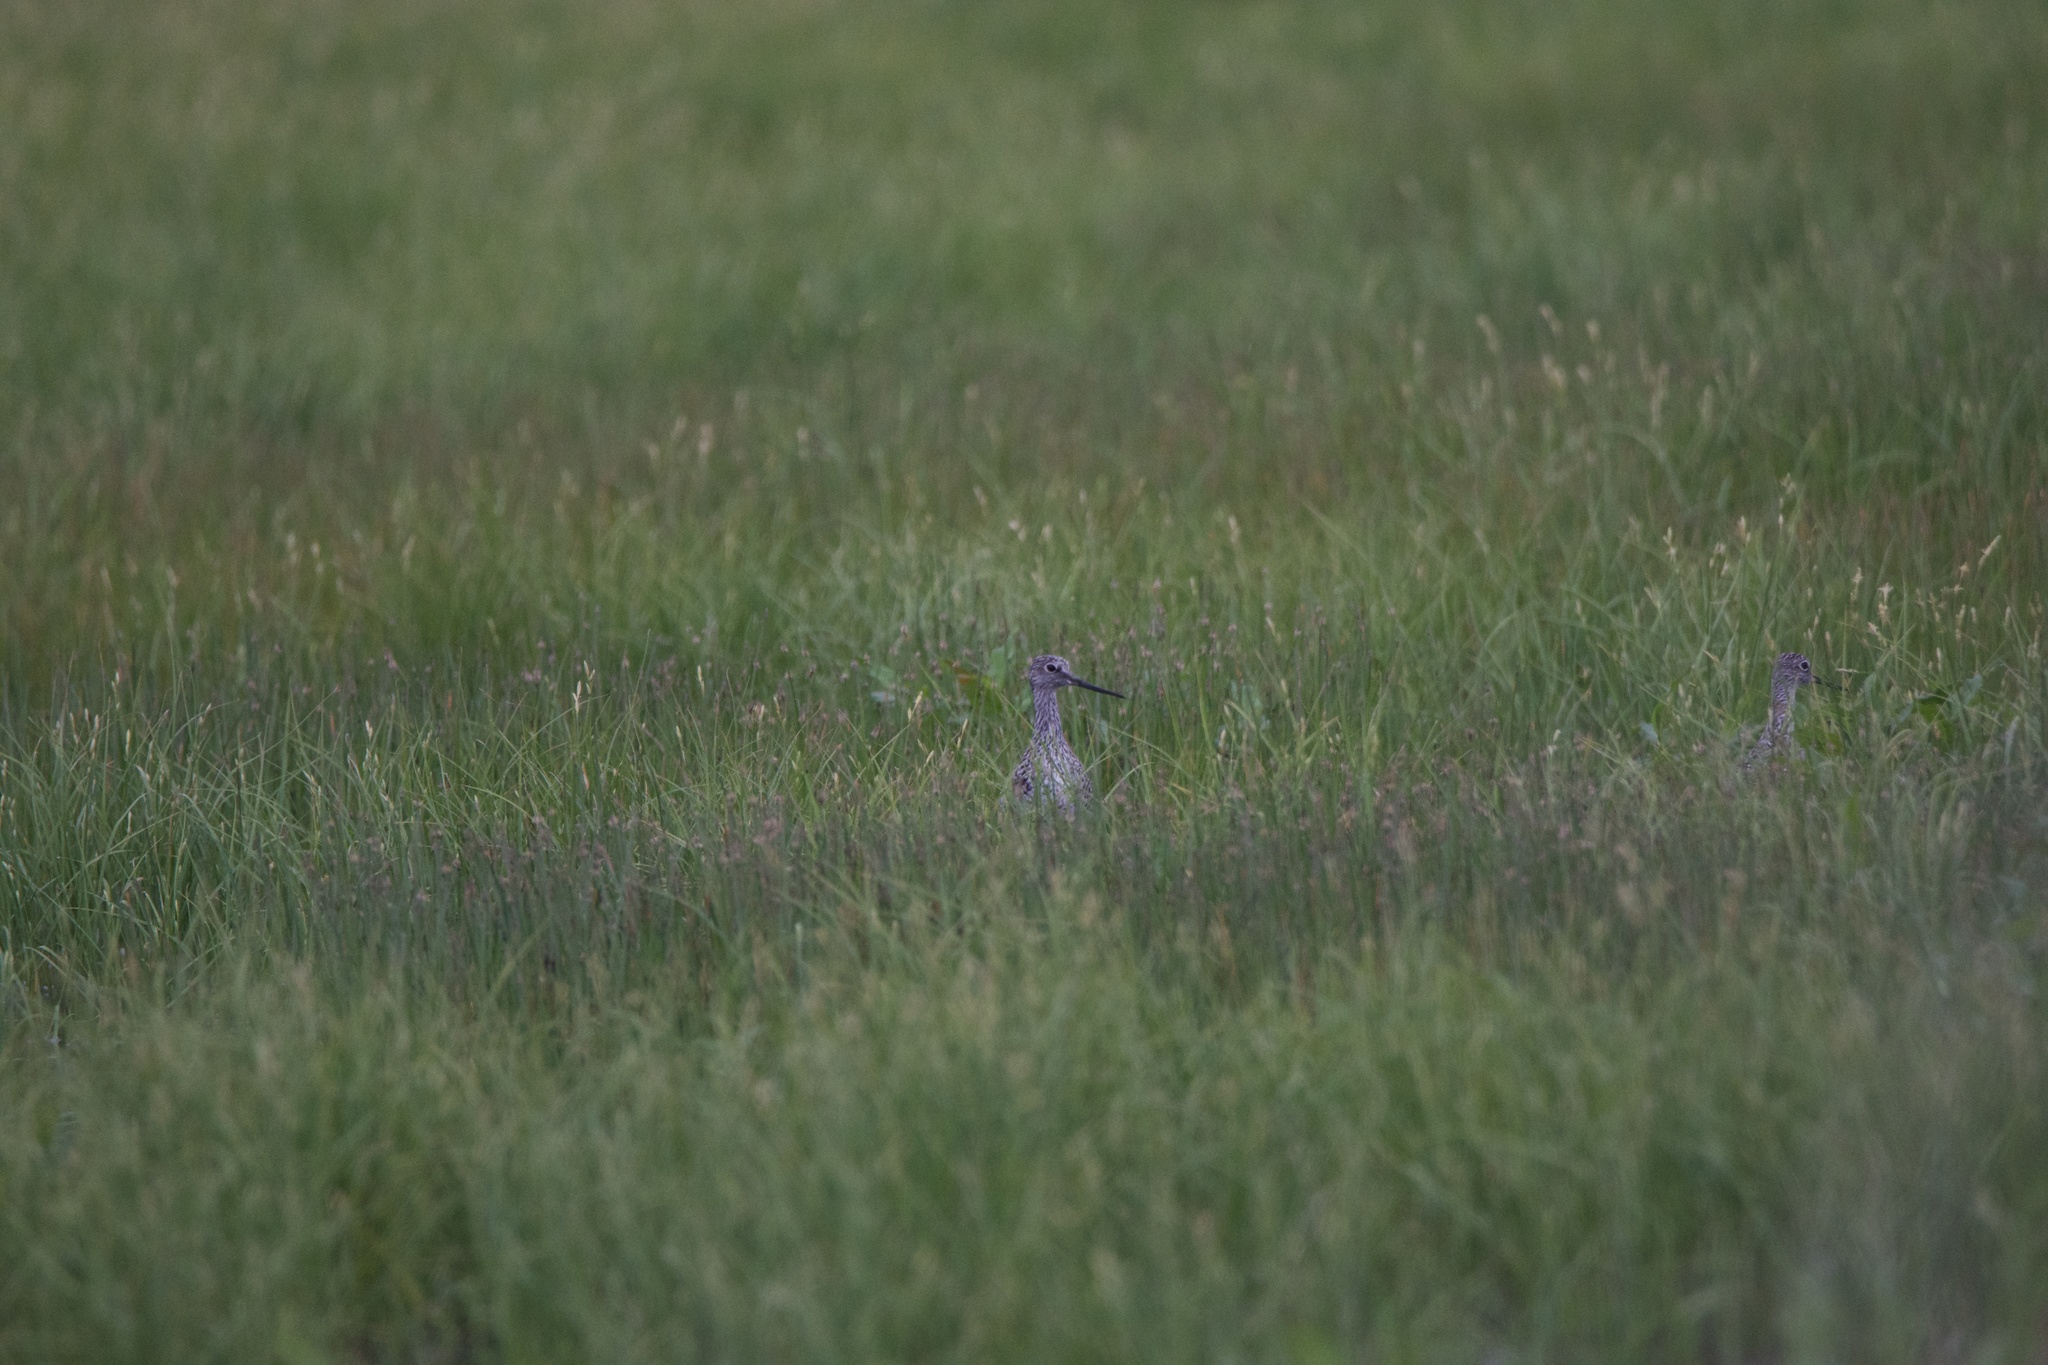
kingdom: Animalia
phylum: Chordata
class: Aves
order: Charadriiformes
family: Scolopacidae
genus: Tringa
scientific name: Tringa melanoleuca
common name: Greater yellowlegs
